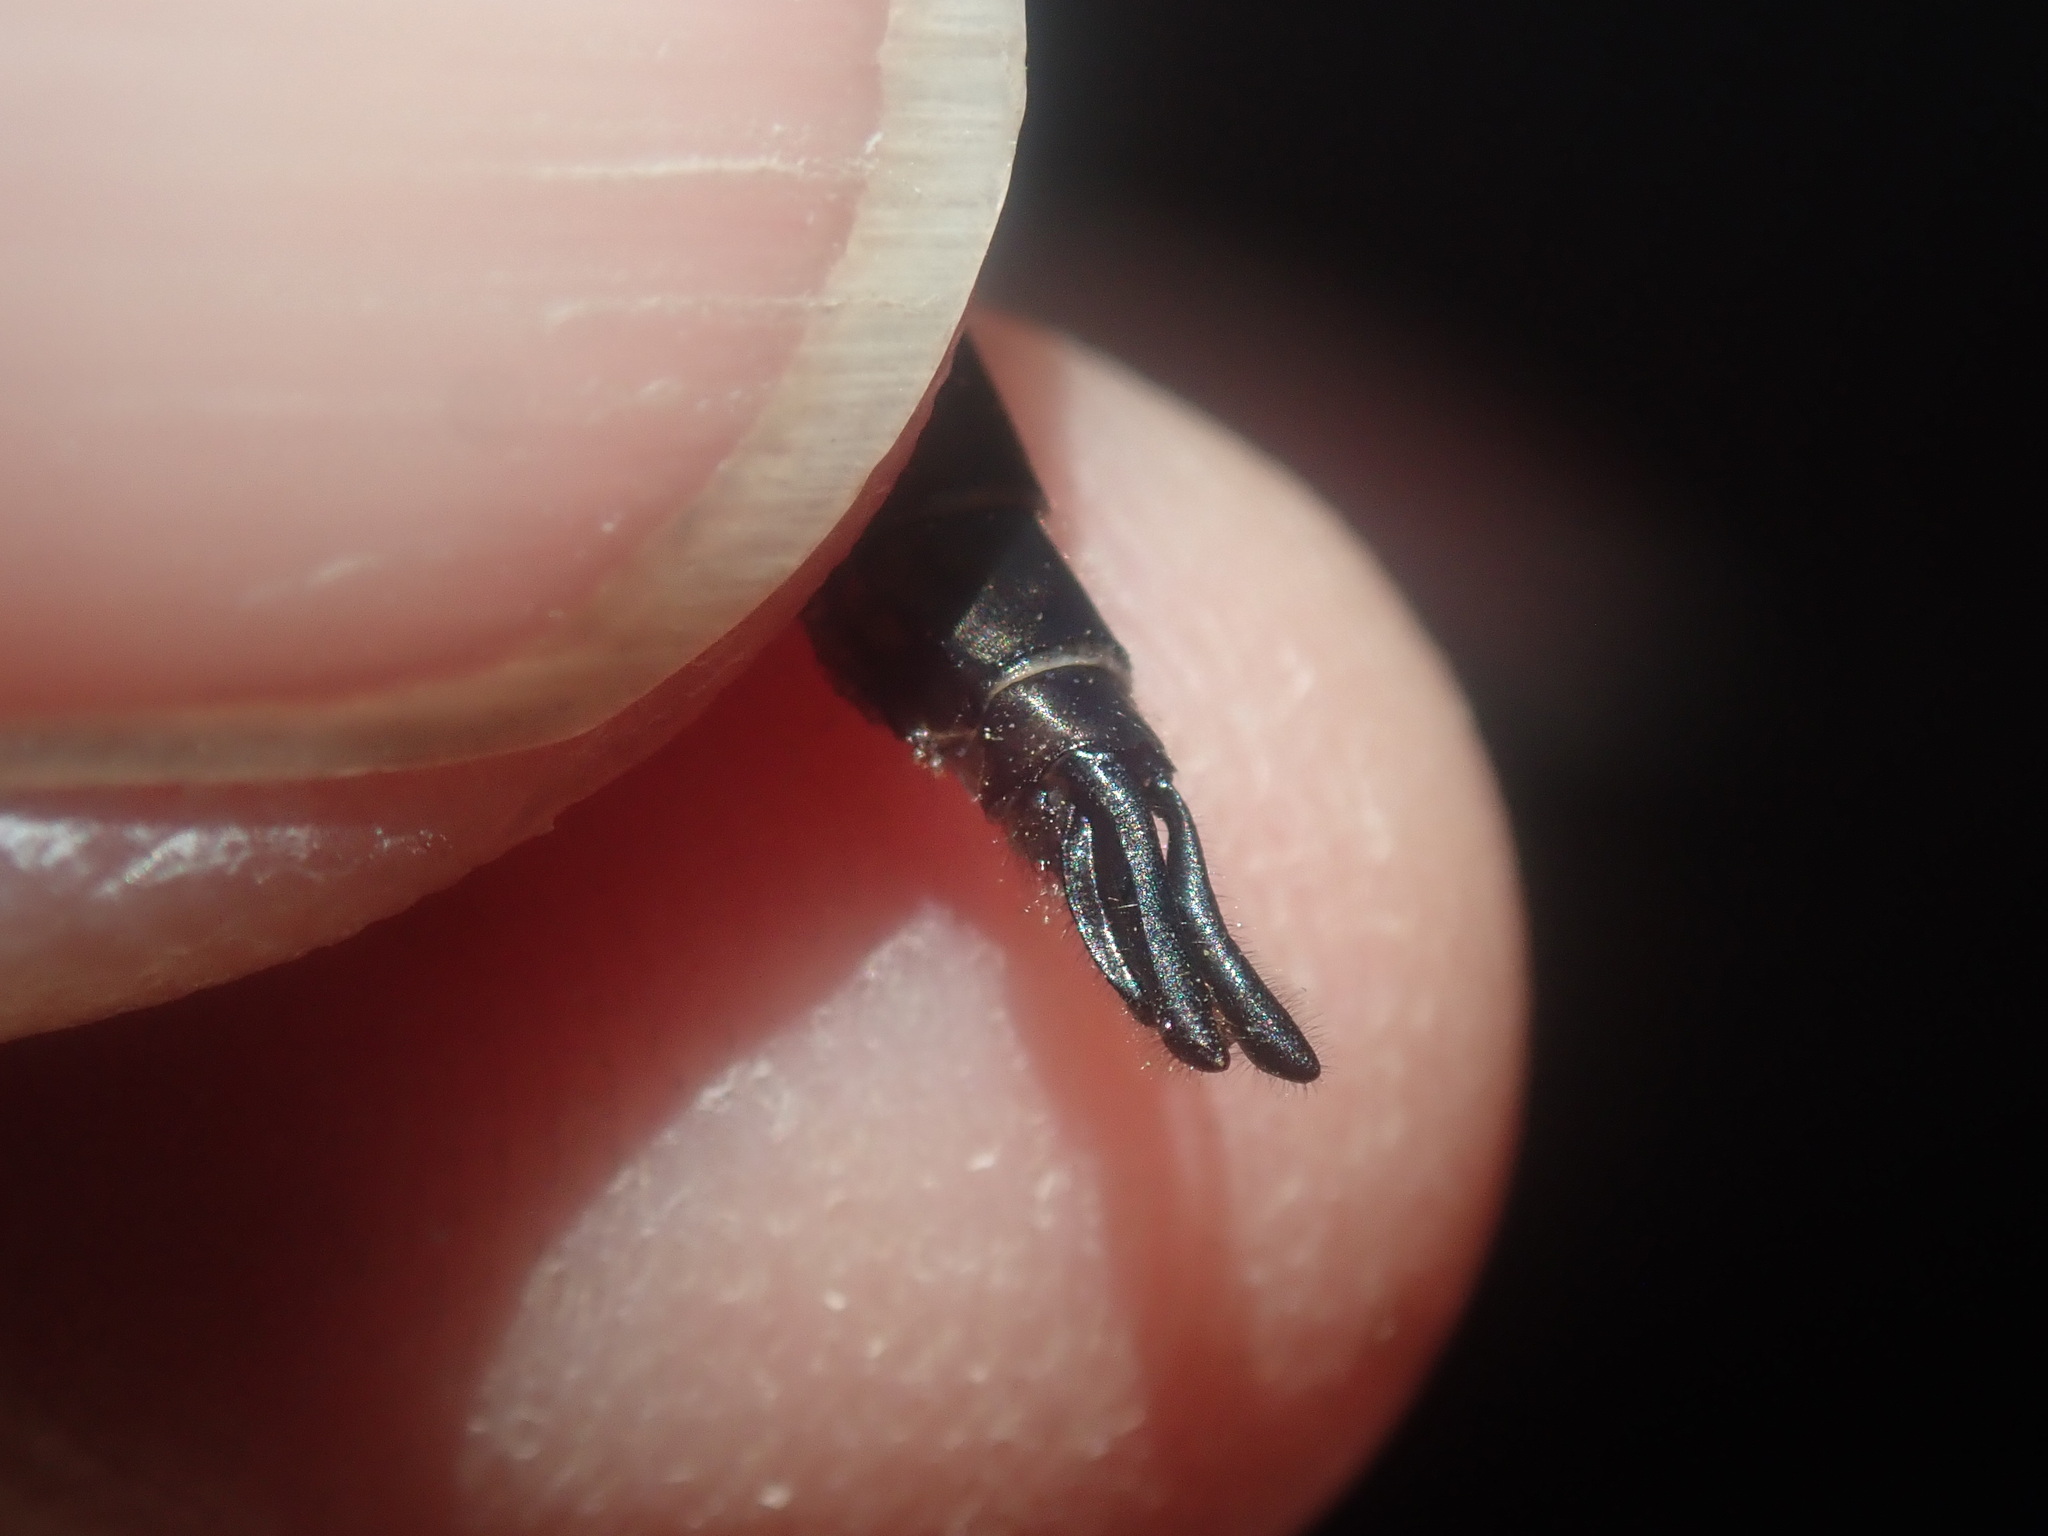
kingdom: Animalia
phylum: Arthropoda
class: Insecta
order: Odonata
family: Corduliidae
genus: Epitheca
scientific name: Epitheca
